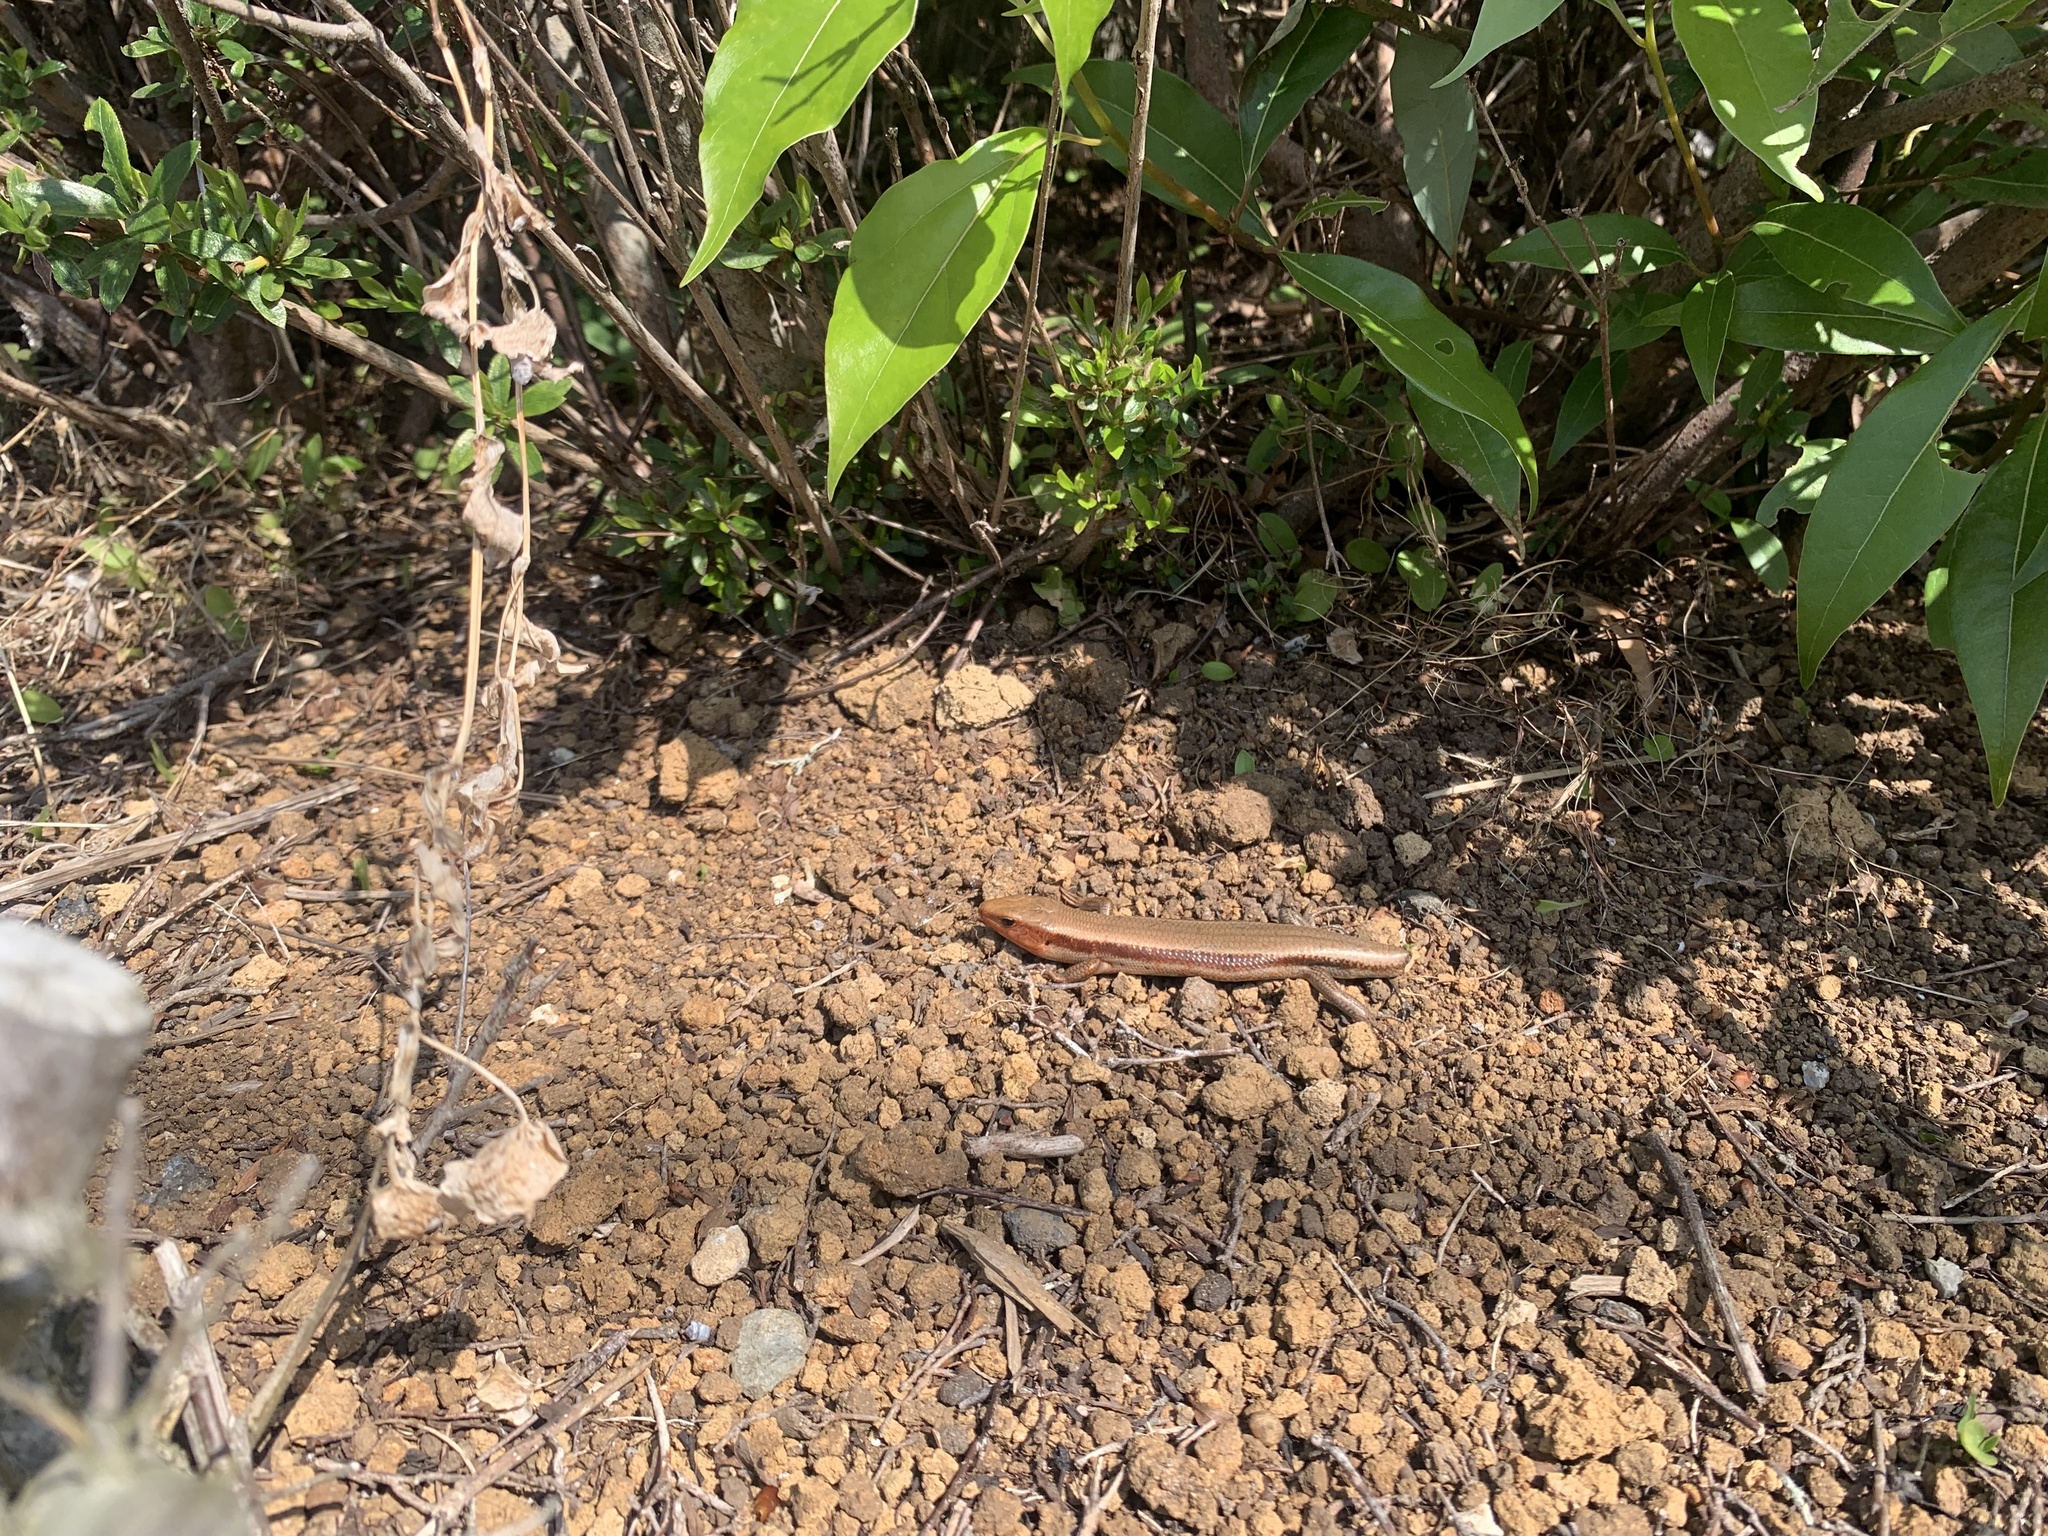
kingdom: Animalia
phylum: Chordata
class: Squamata
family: Scincidae
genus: Plestiodon
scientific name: Plestiodon finitimus
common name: Far eastern skink
